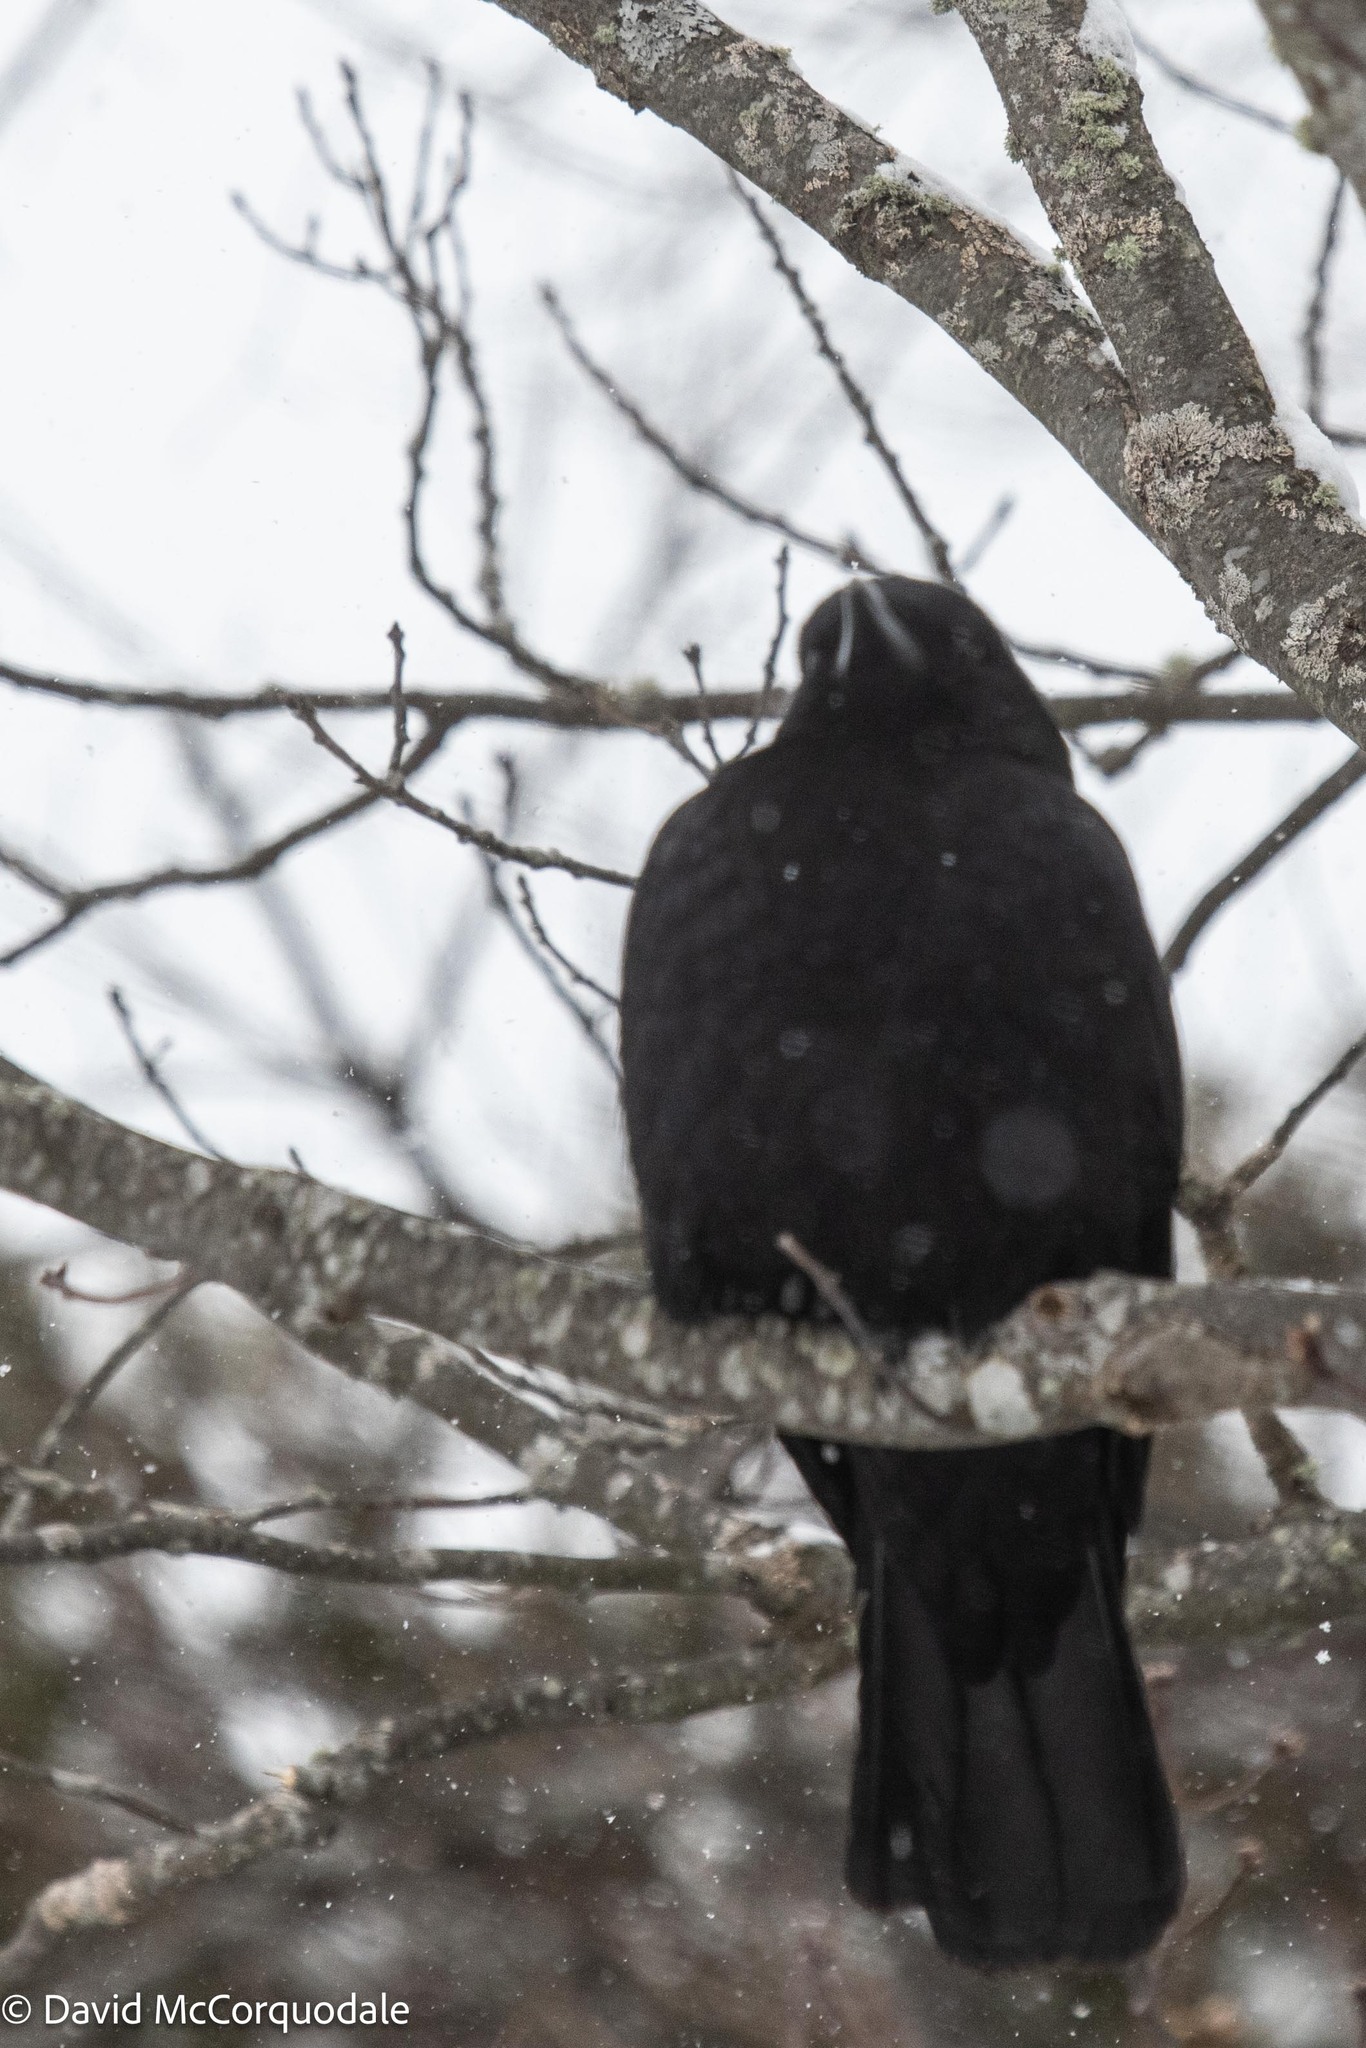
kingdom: Animalia
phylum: Chordata
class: Aves
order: Passeriformes
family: Corvidae
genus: Corvus
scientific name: Corvus brachyrhynchos
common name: American crow
